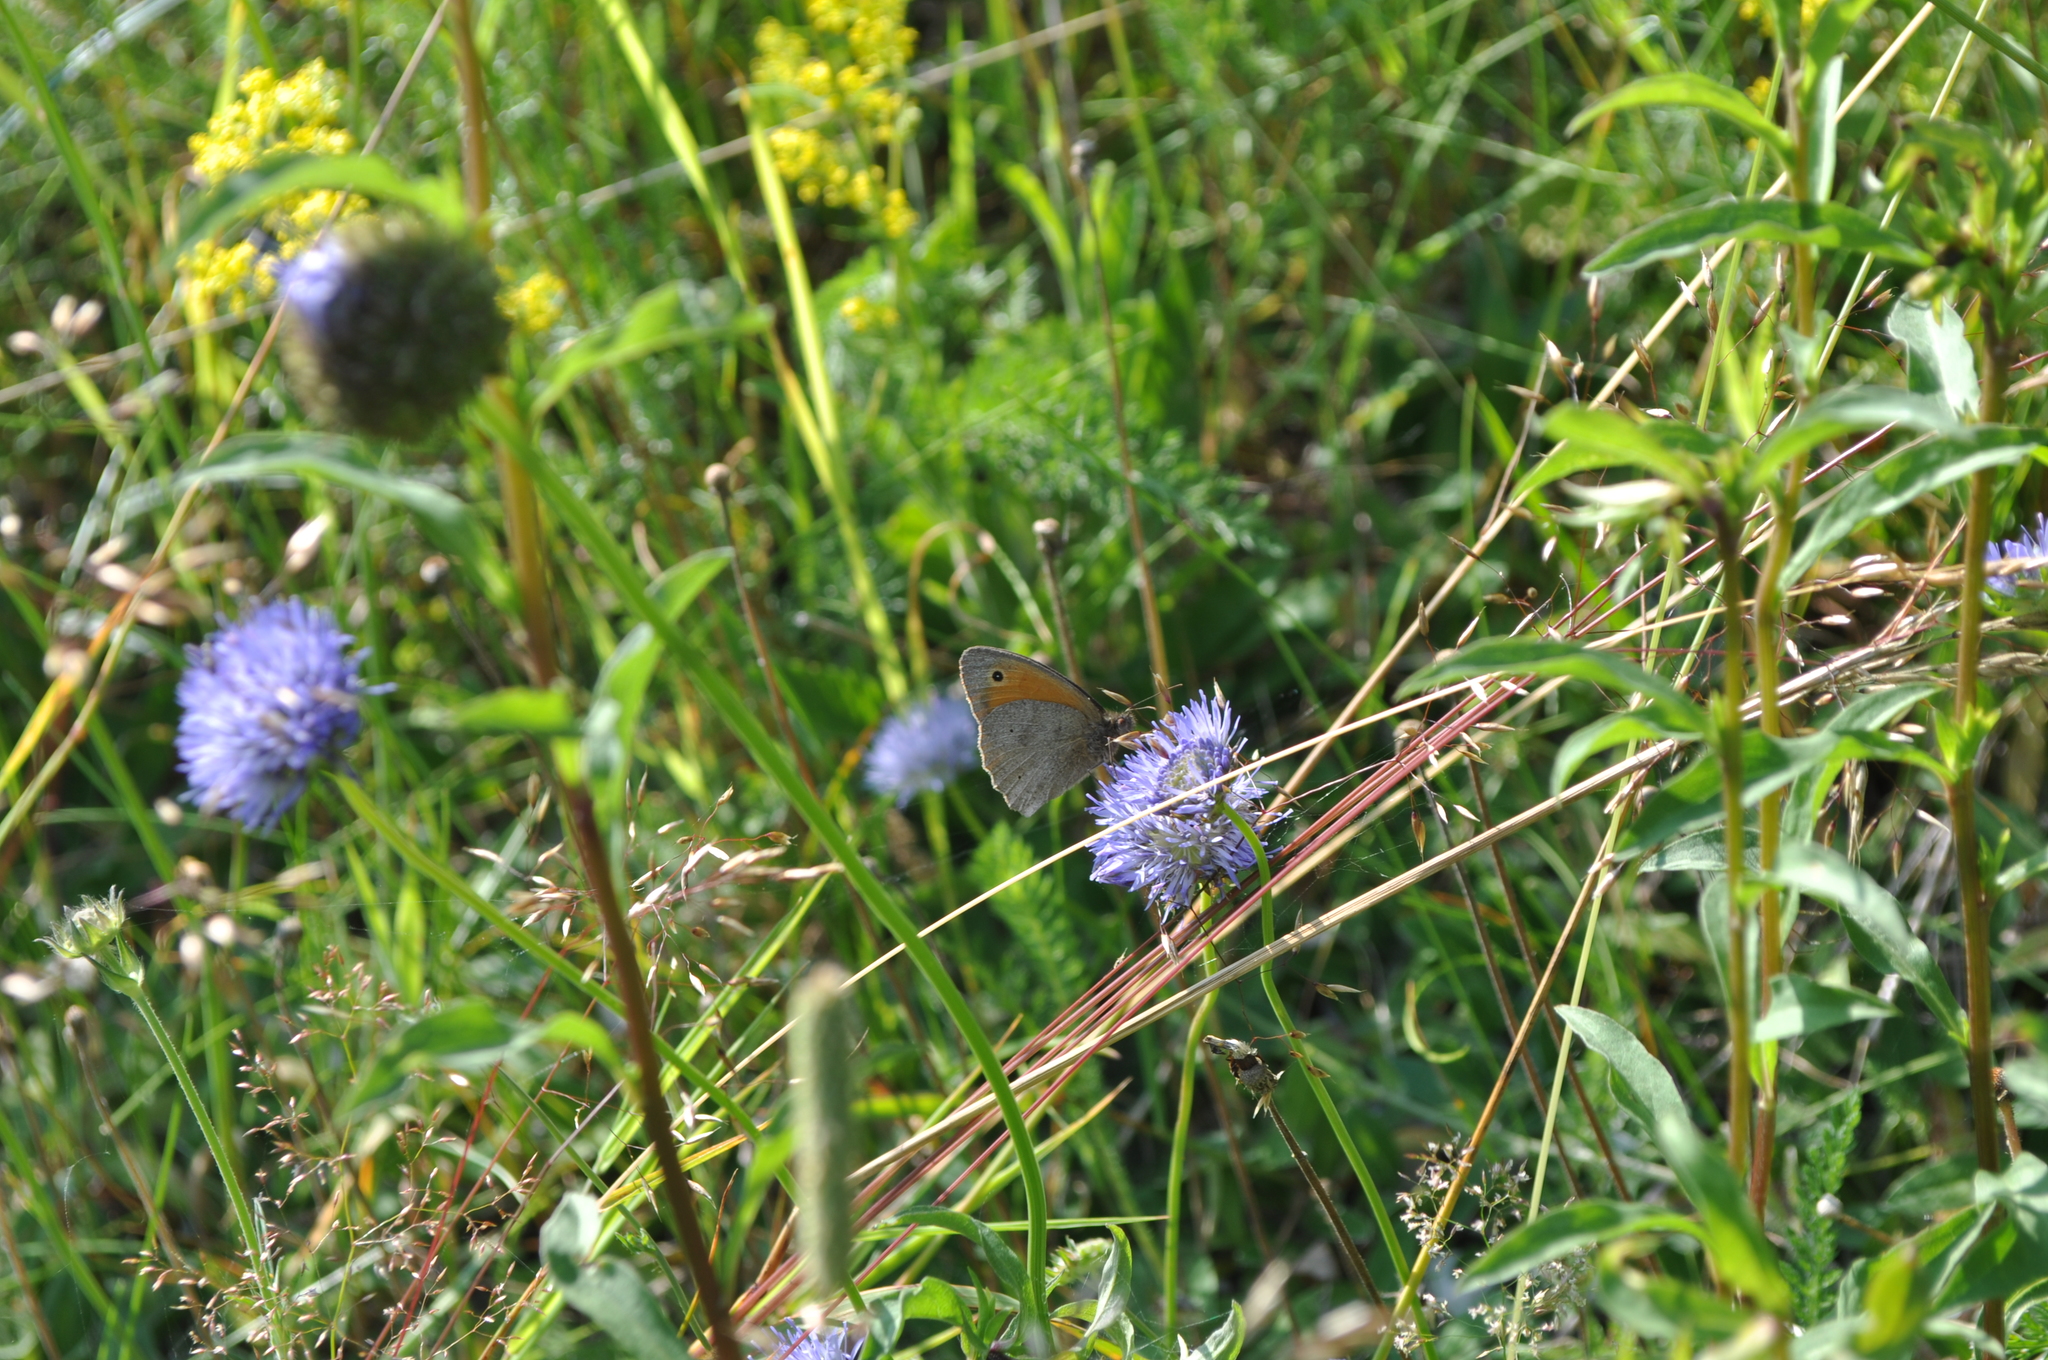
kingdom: Animalia
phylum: Arthropoda
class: Insecta
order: Lepidoptera
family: Nymphalidae
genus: Maniola
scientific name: Maniola jurtina
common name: Meadow brown
